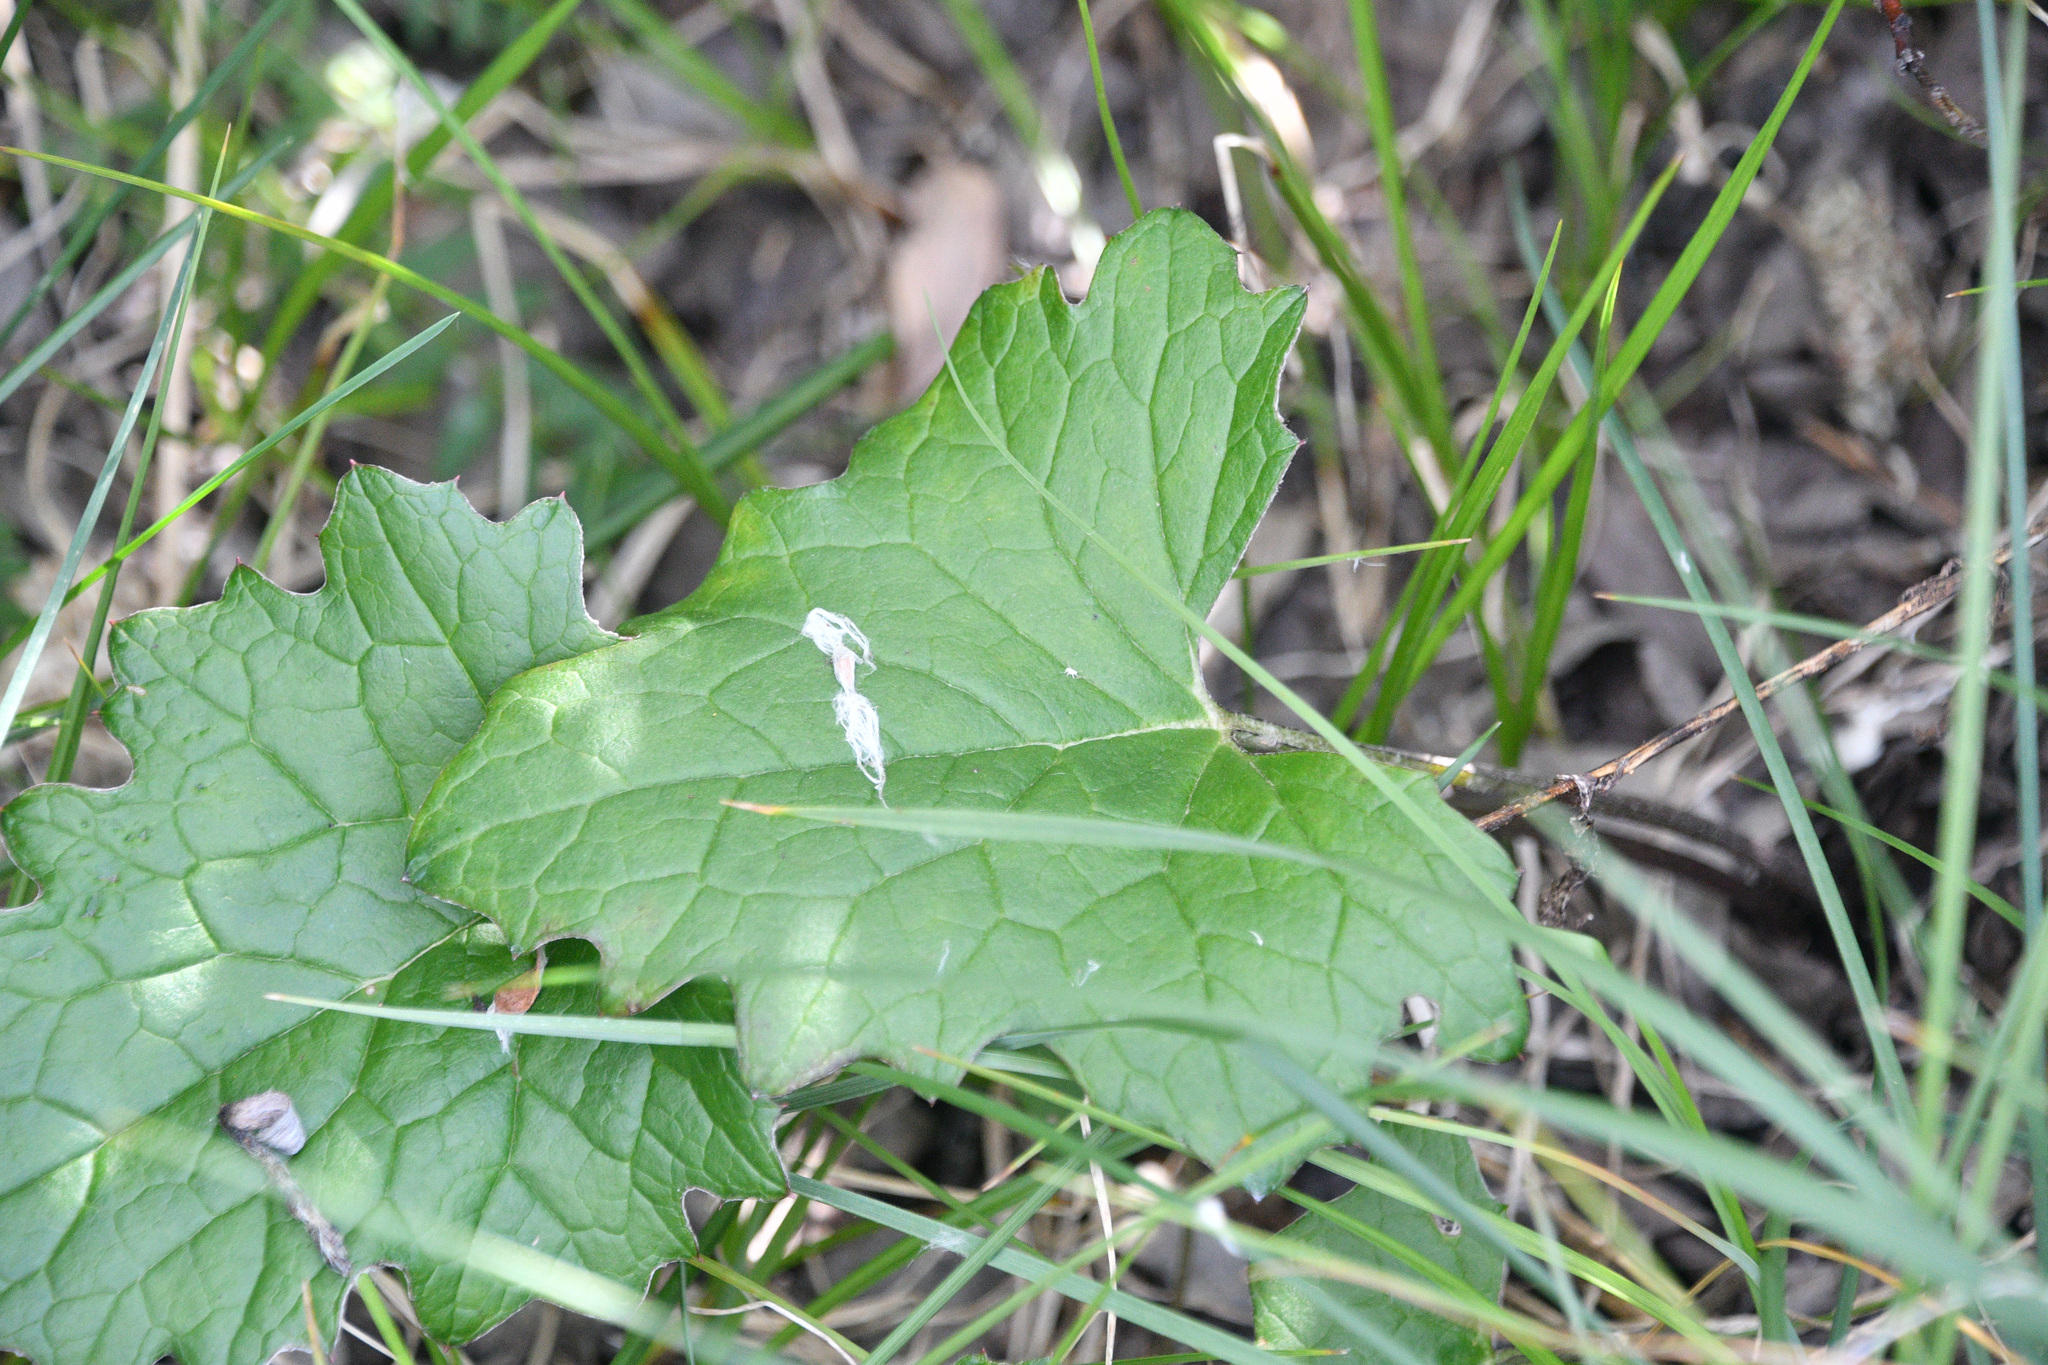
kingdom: Plantae
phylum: Tracheophyta
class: Magnoliopsida
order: Asterales
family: Asteraceae
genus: Petasites
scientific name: Petasites frigidus
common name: Arctic butterbur
